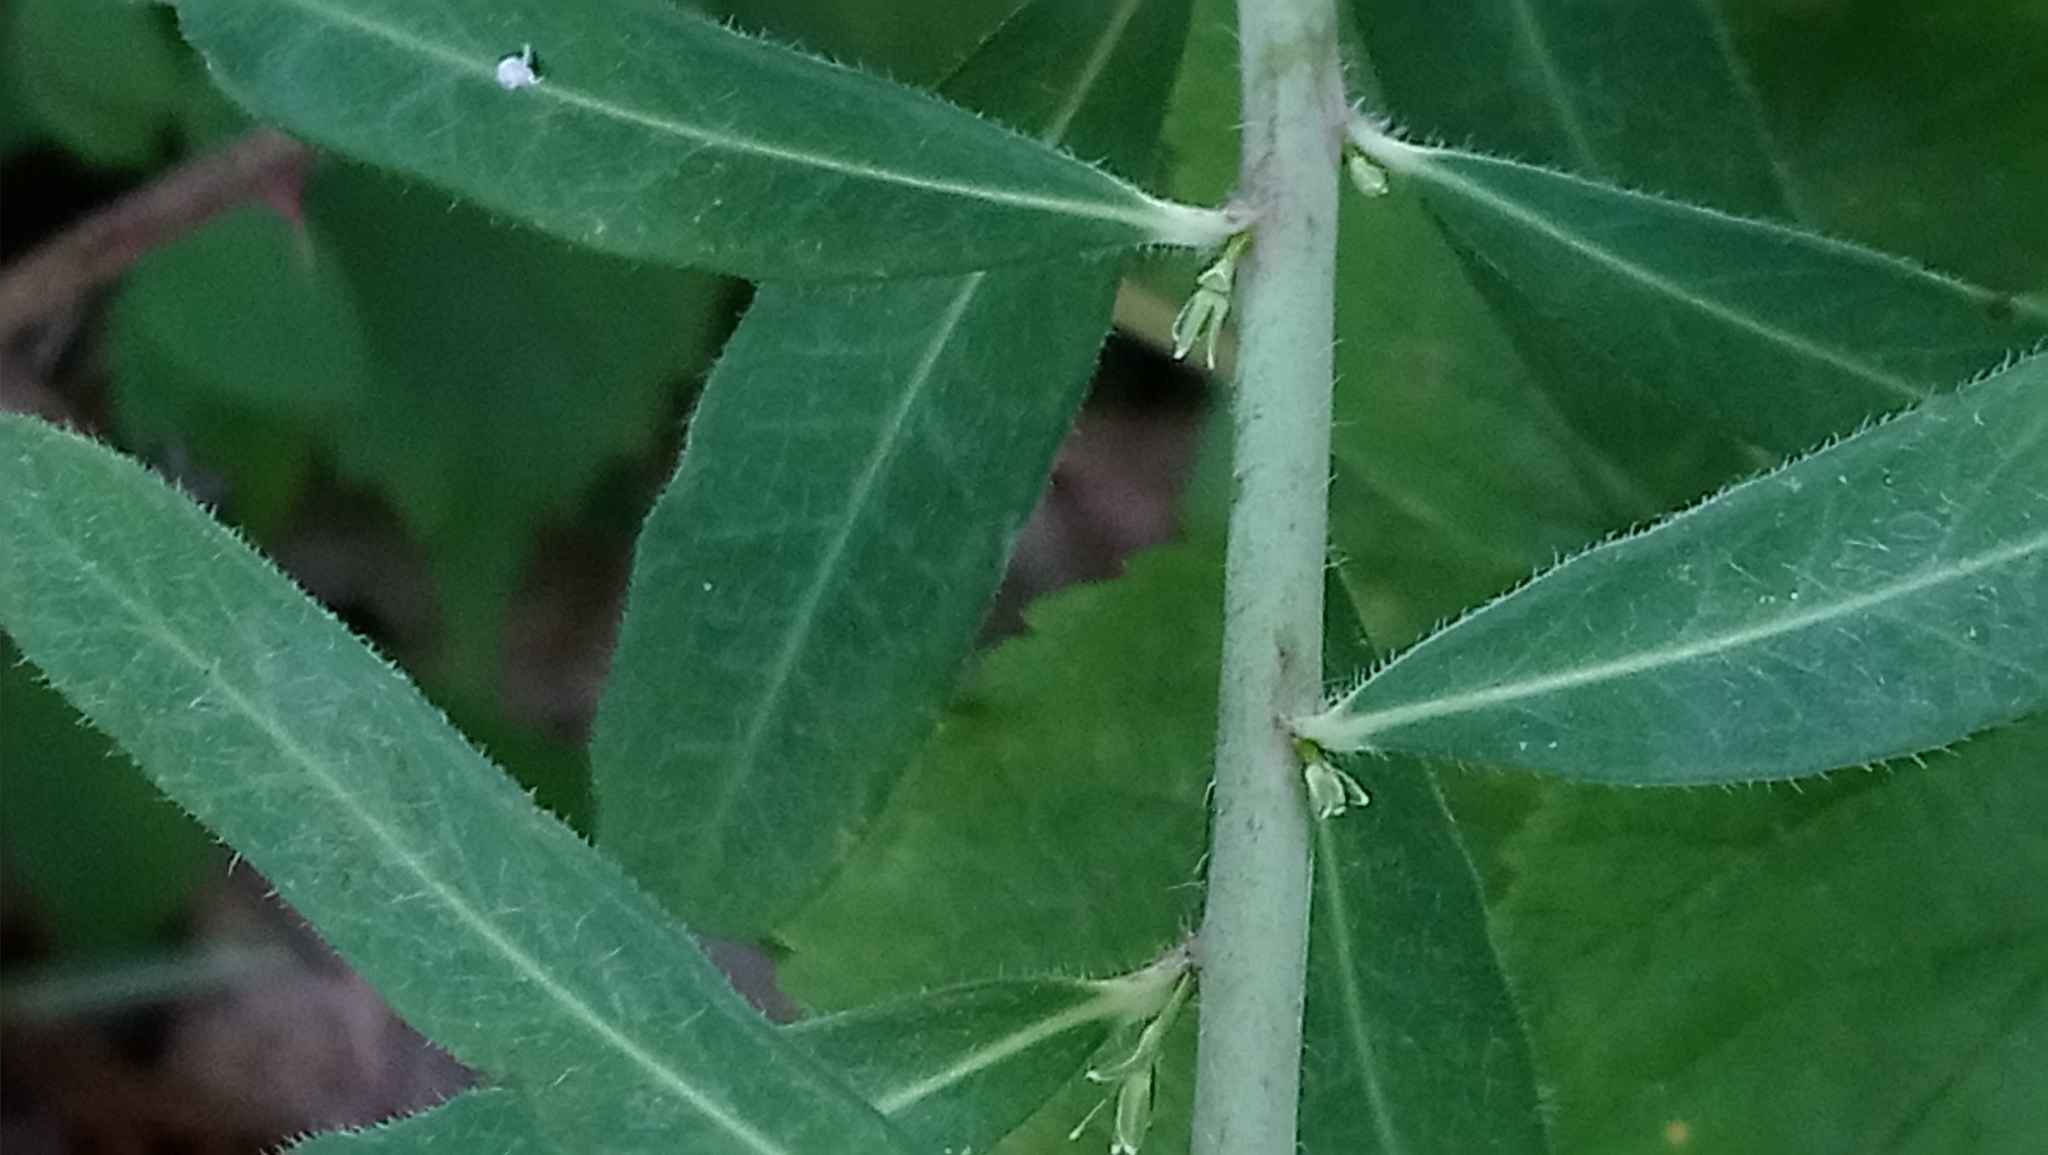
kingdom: Plantae
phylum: Tracheophyta
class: Magnoliopsida
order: Malpighiales
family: Euphorbiaceae
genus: Euphorbia
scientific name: Euphorbia corollata
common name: Flowering spurge
